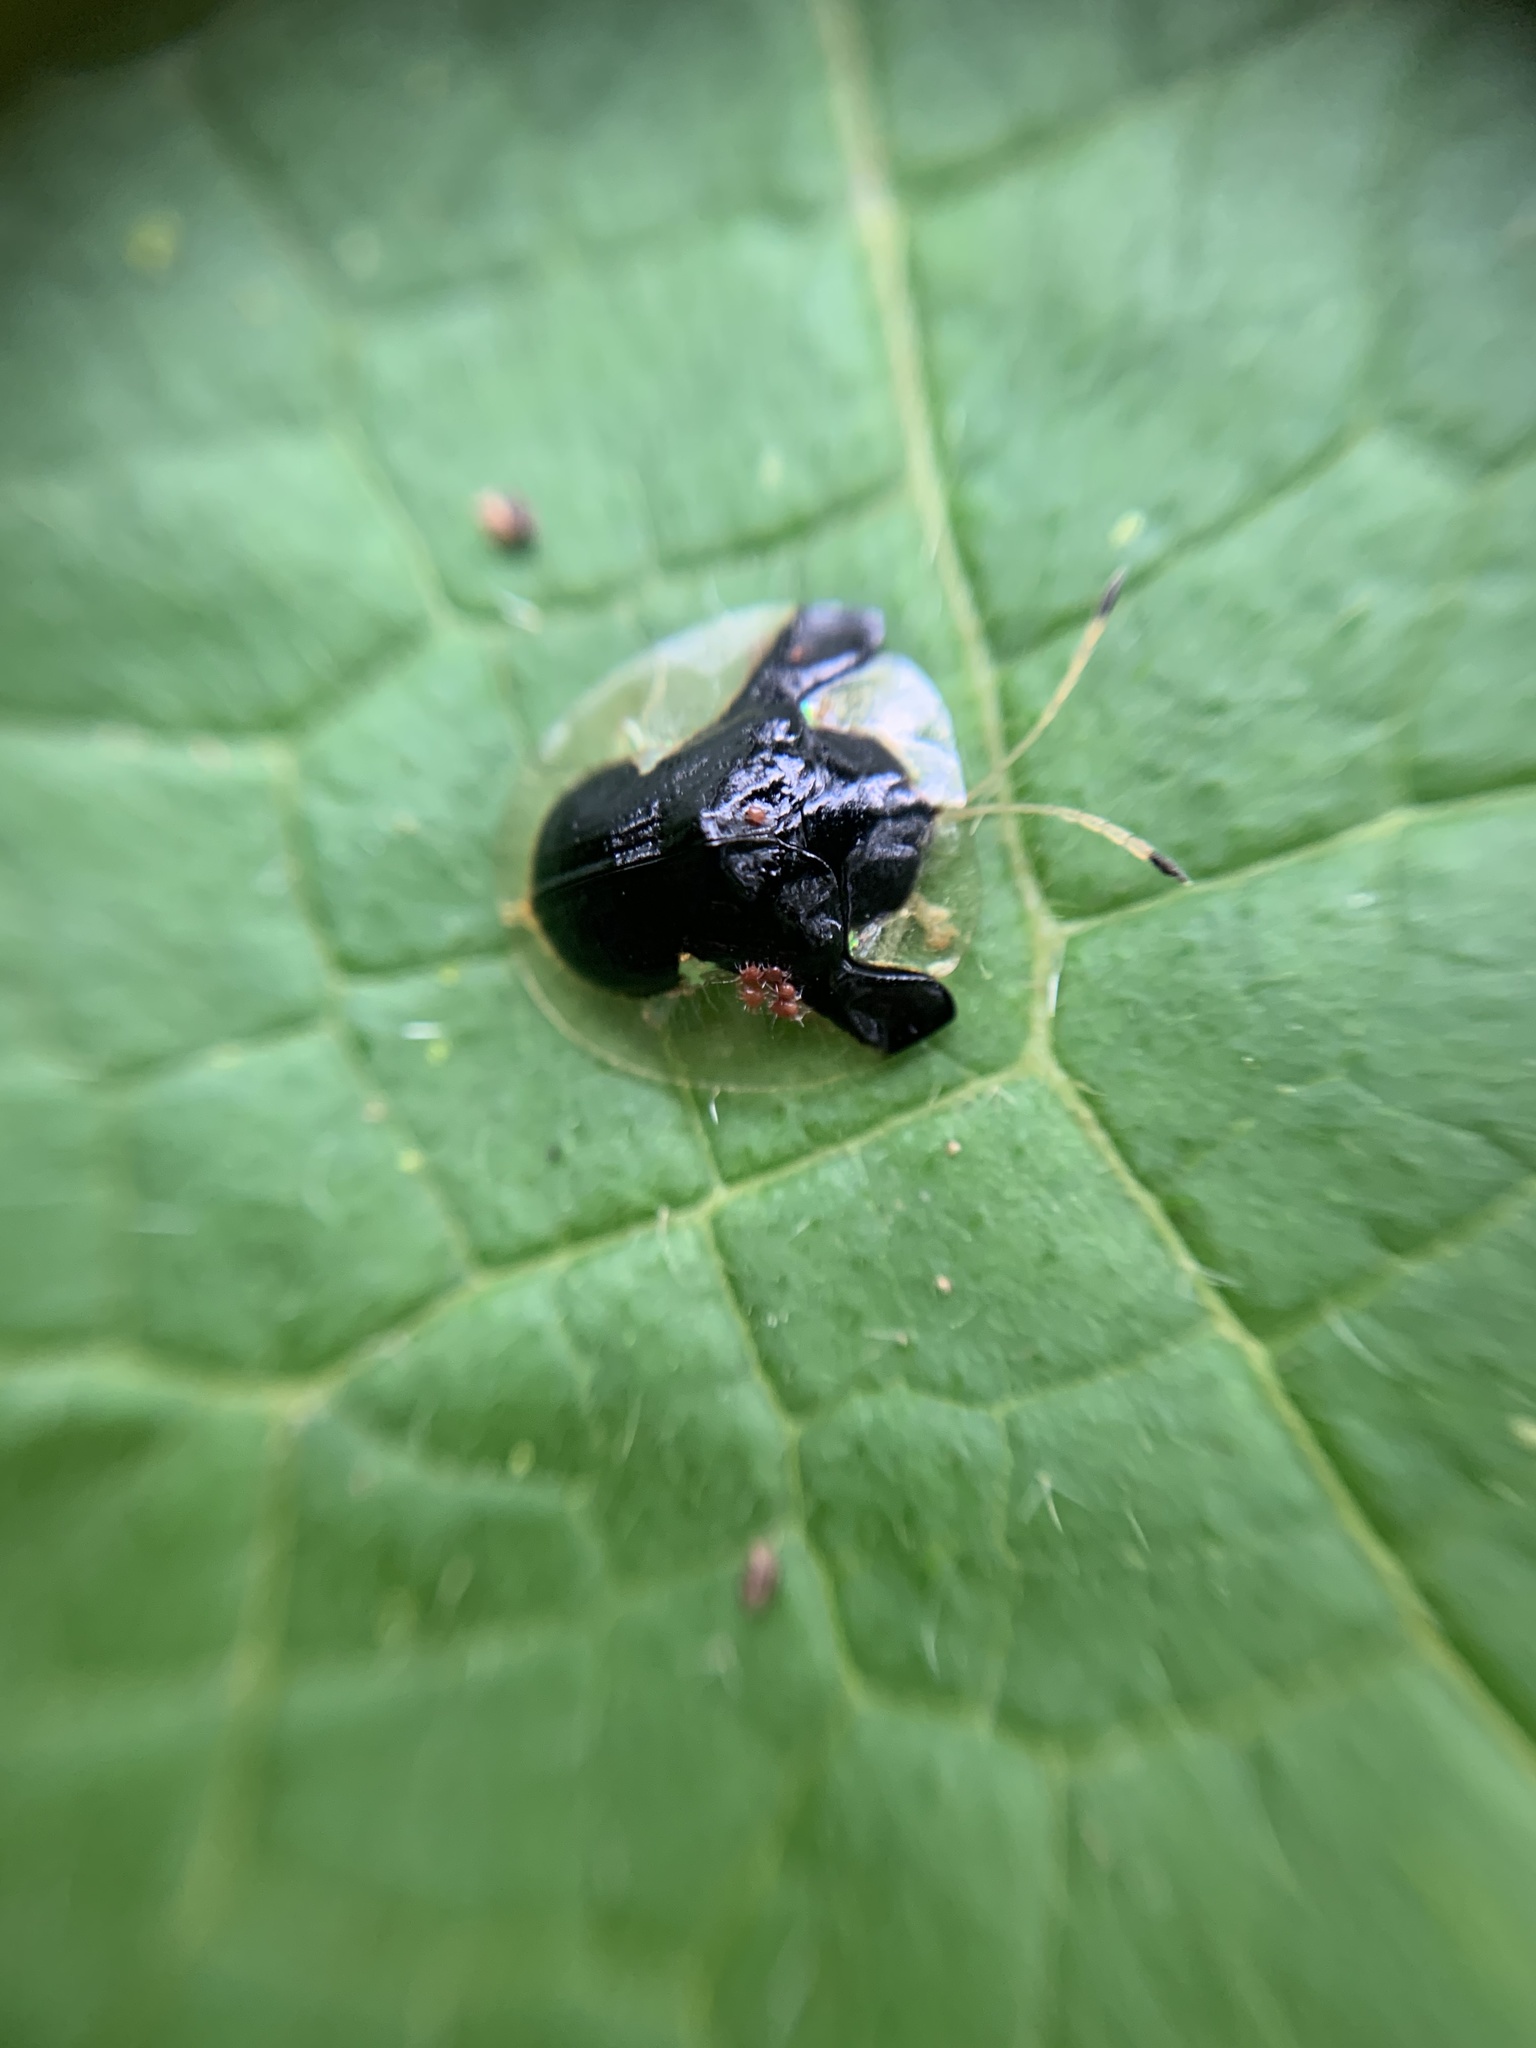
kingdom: Animalia
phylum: Arthropoda
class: Insecta
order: Coleoptera
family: Chrysomelidae
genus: Plagiometriona
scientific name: Plagiometriona clarki
